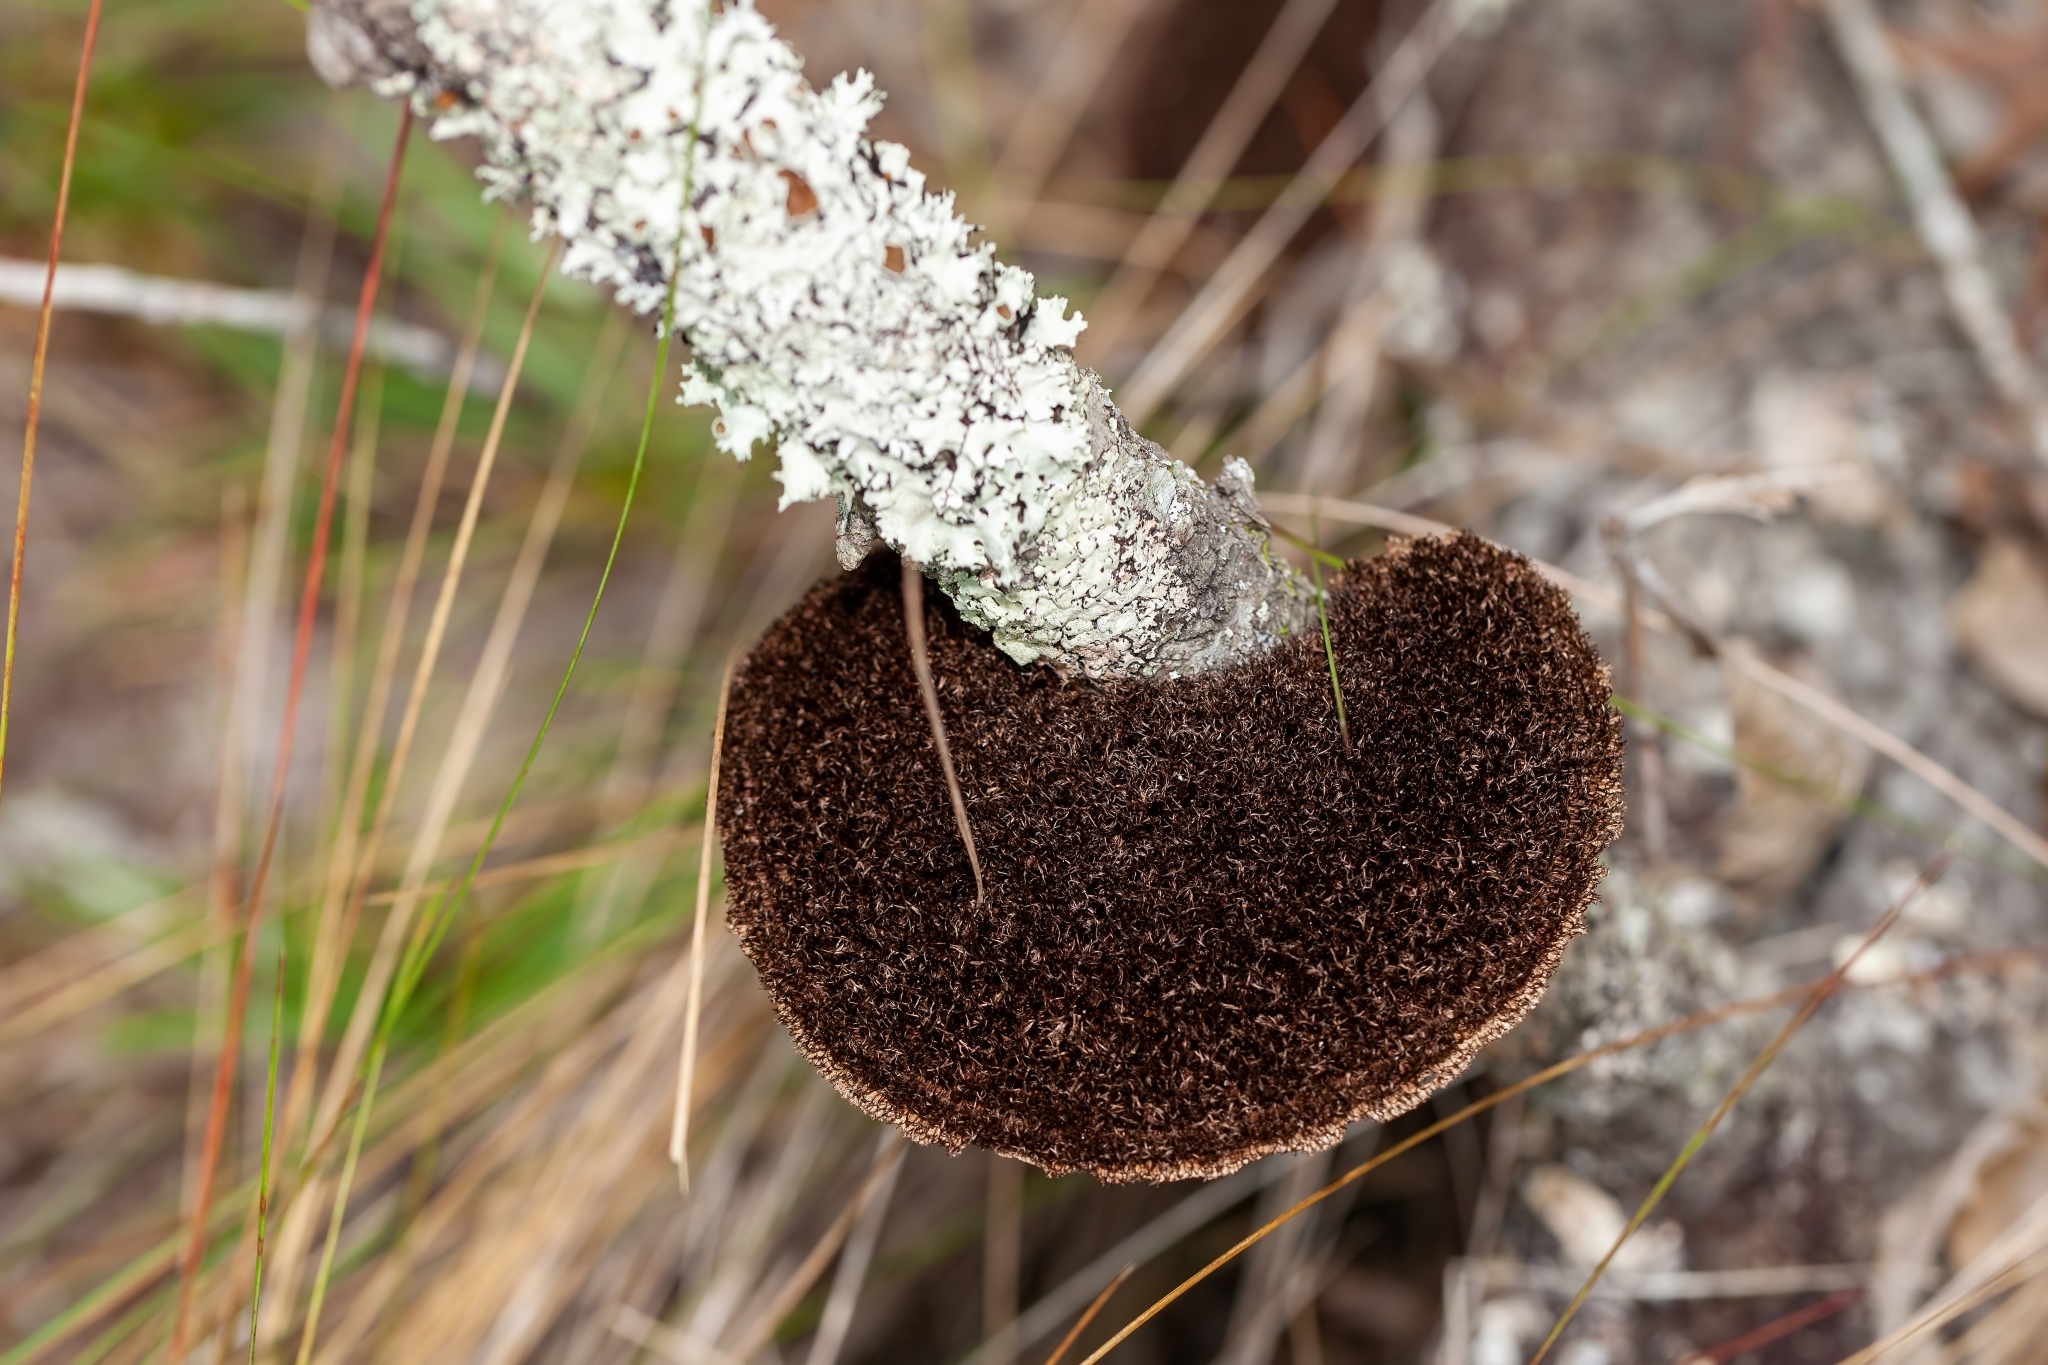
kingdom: Fungi
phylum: Basidiomycota
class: Agaricomycetes
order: Polyporales
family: Cerrenaceae
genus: Cerrena
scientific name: Cerrena hydnoides
